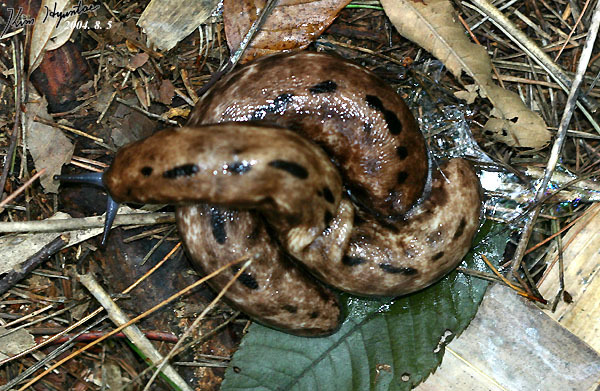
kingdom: Animalia
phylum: Mollusca
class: Gastropoda
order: Stylommatophora
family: Philomycidae
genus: Meghimatium
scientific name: Meghimatium fruhstorferi
